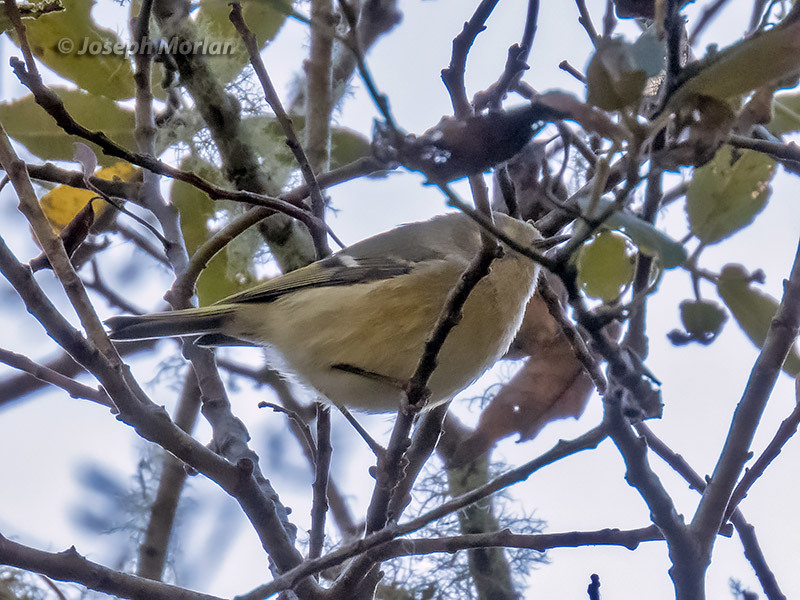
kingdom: Animalia
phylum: Chordata
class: Aves
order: Passeriformes
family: Regulidae
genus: Regulus
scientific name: Regulus calendula
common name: Ruby-crowned kinglet
